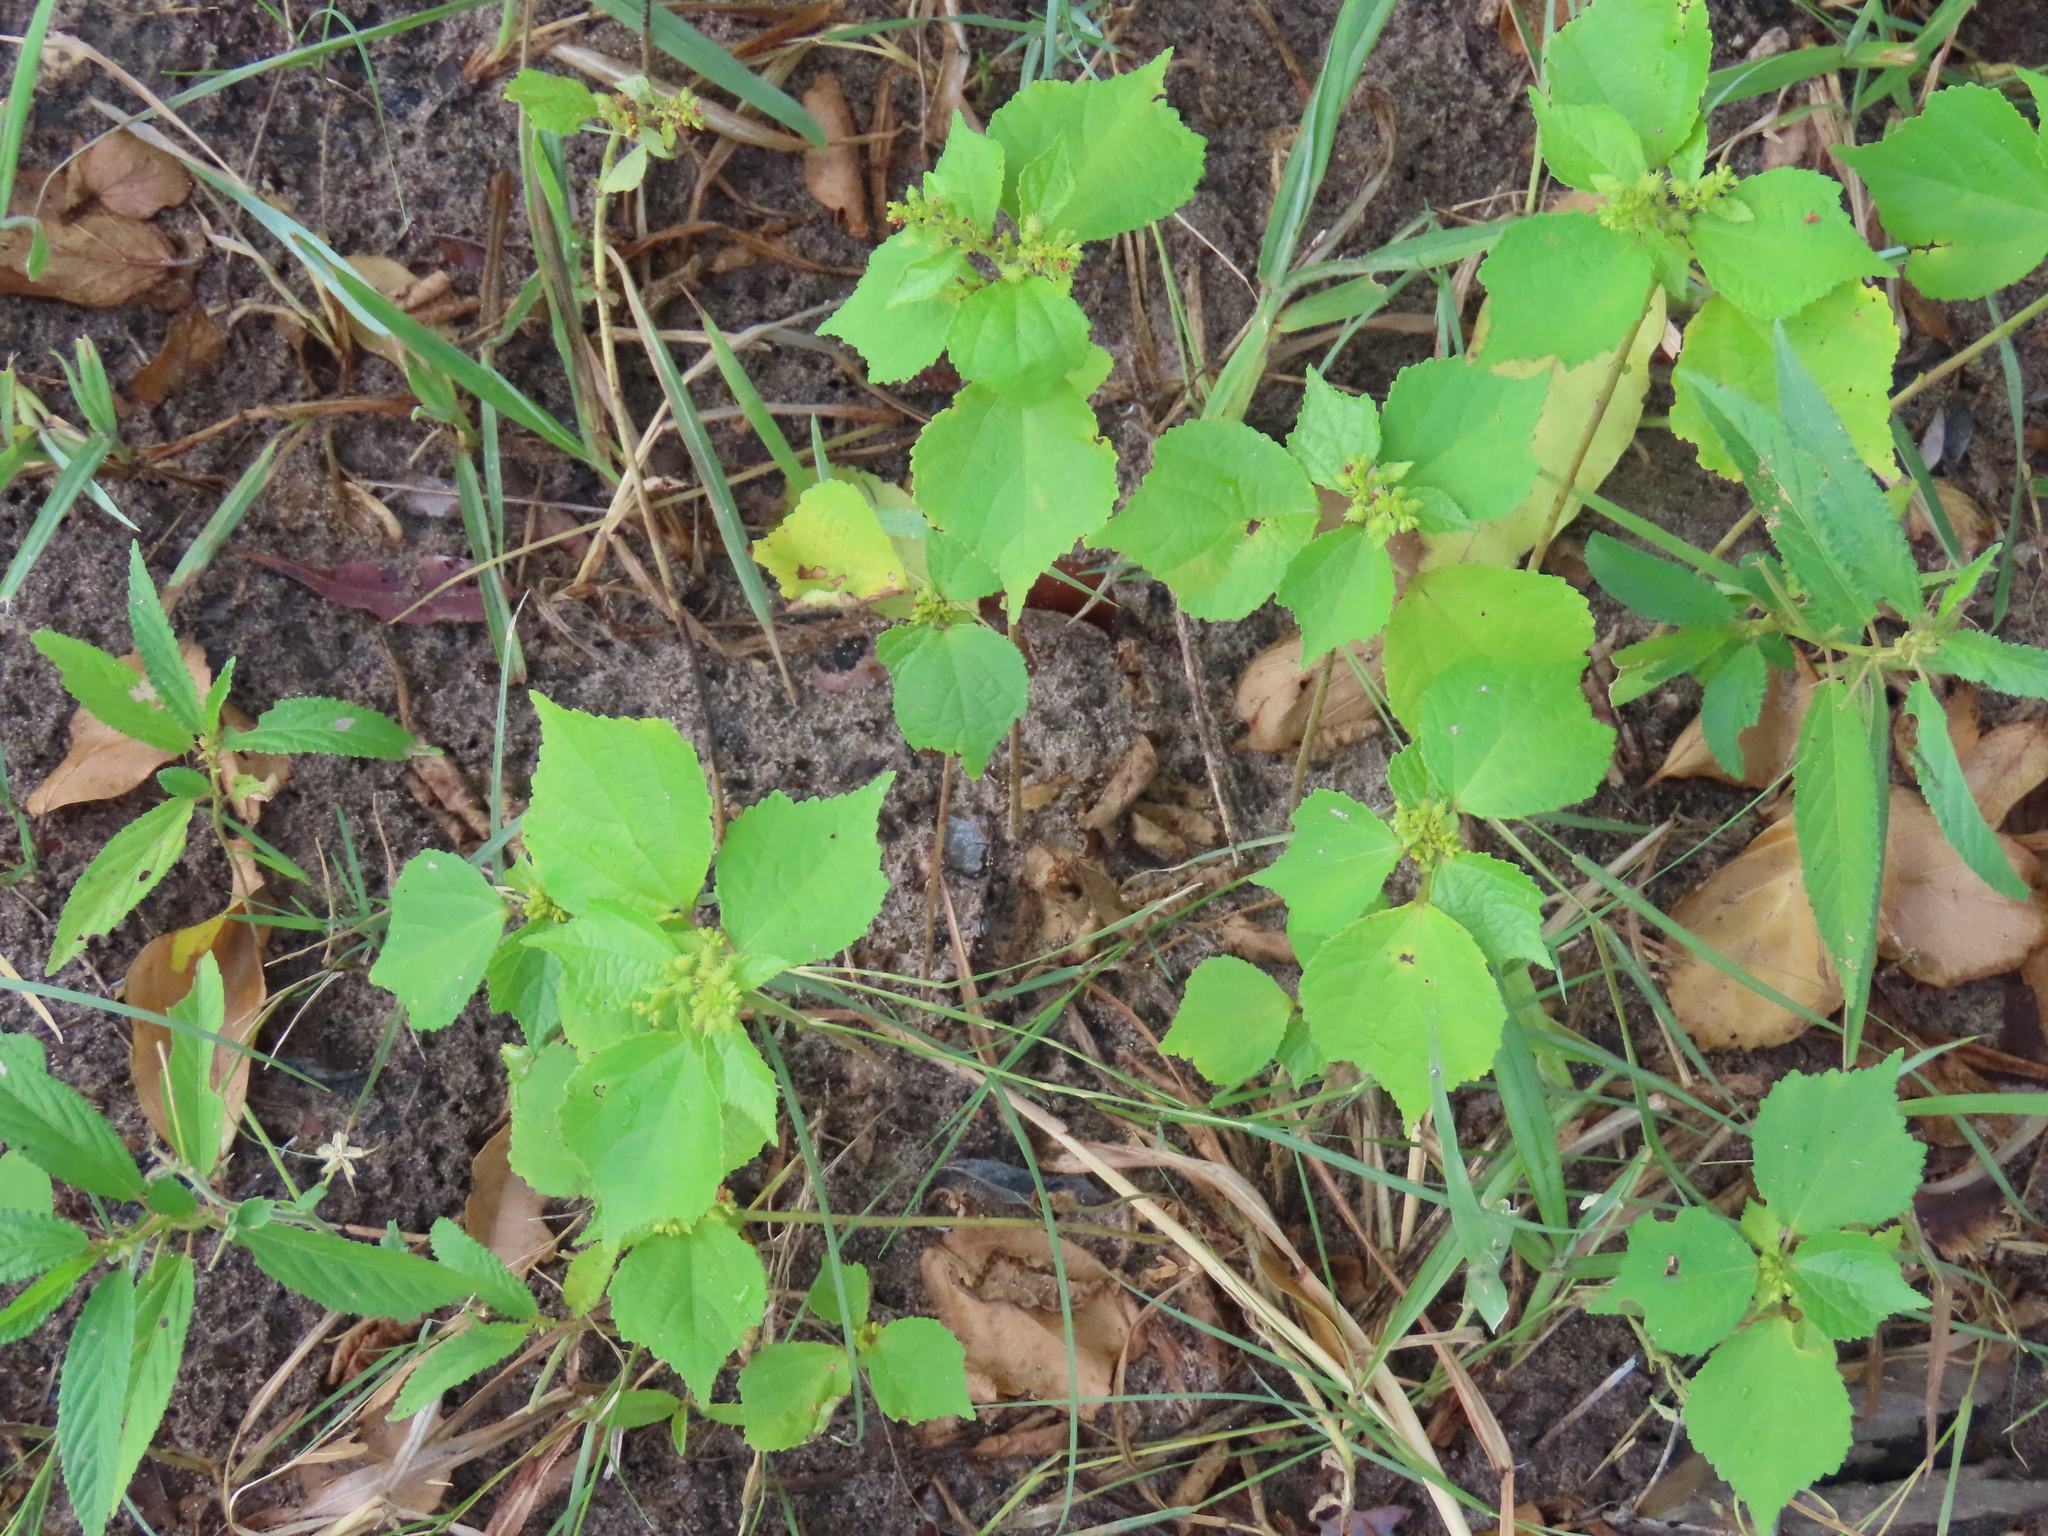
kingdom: Plantae
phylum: Tracheophyta
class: Magnoliopsida
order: Malvales
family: Malvaceae
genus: Triumfetta
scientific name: Triumfetta pentandra
